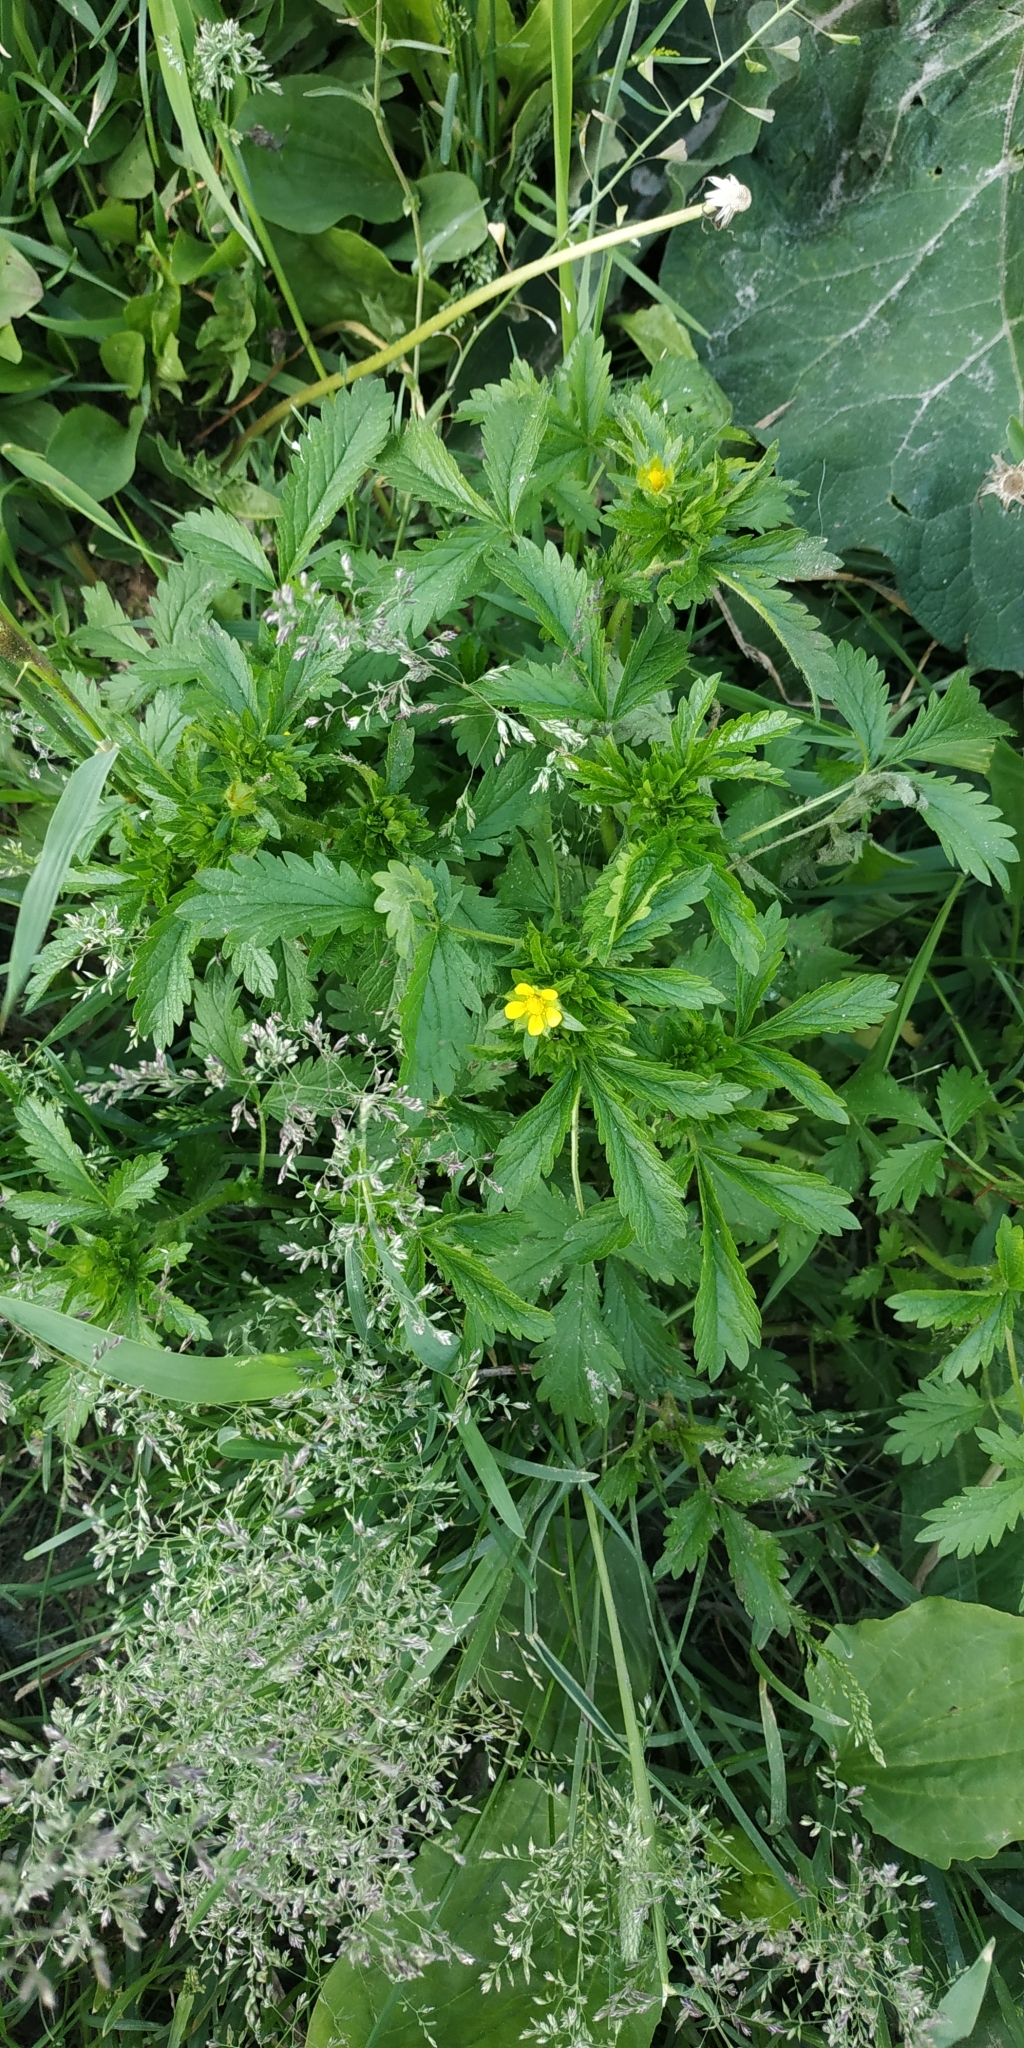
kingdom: Plantae
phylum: Tracheophyta
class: Magnoliopsida
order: Rosales
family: Rosaceae
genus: Potentilla
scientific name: Potentilla norvegica
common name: Ternate-leaved cinquefoil
